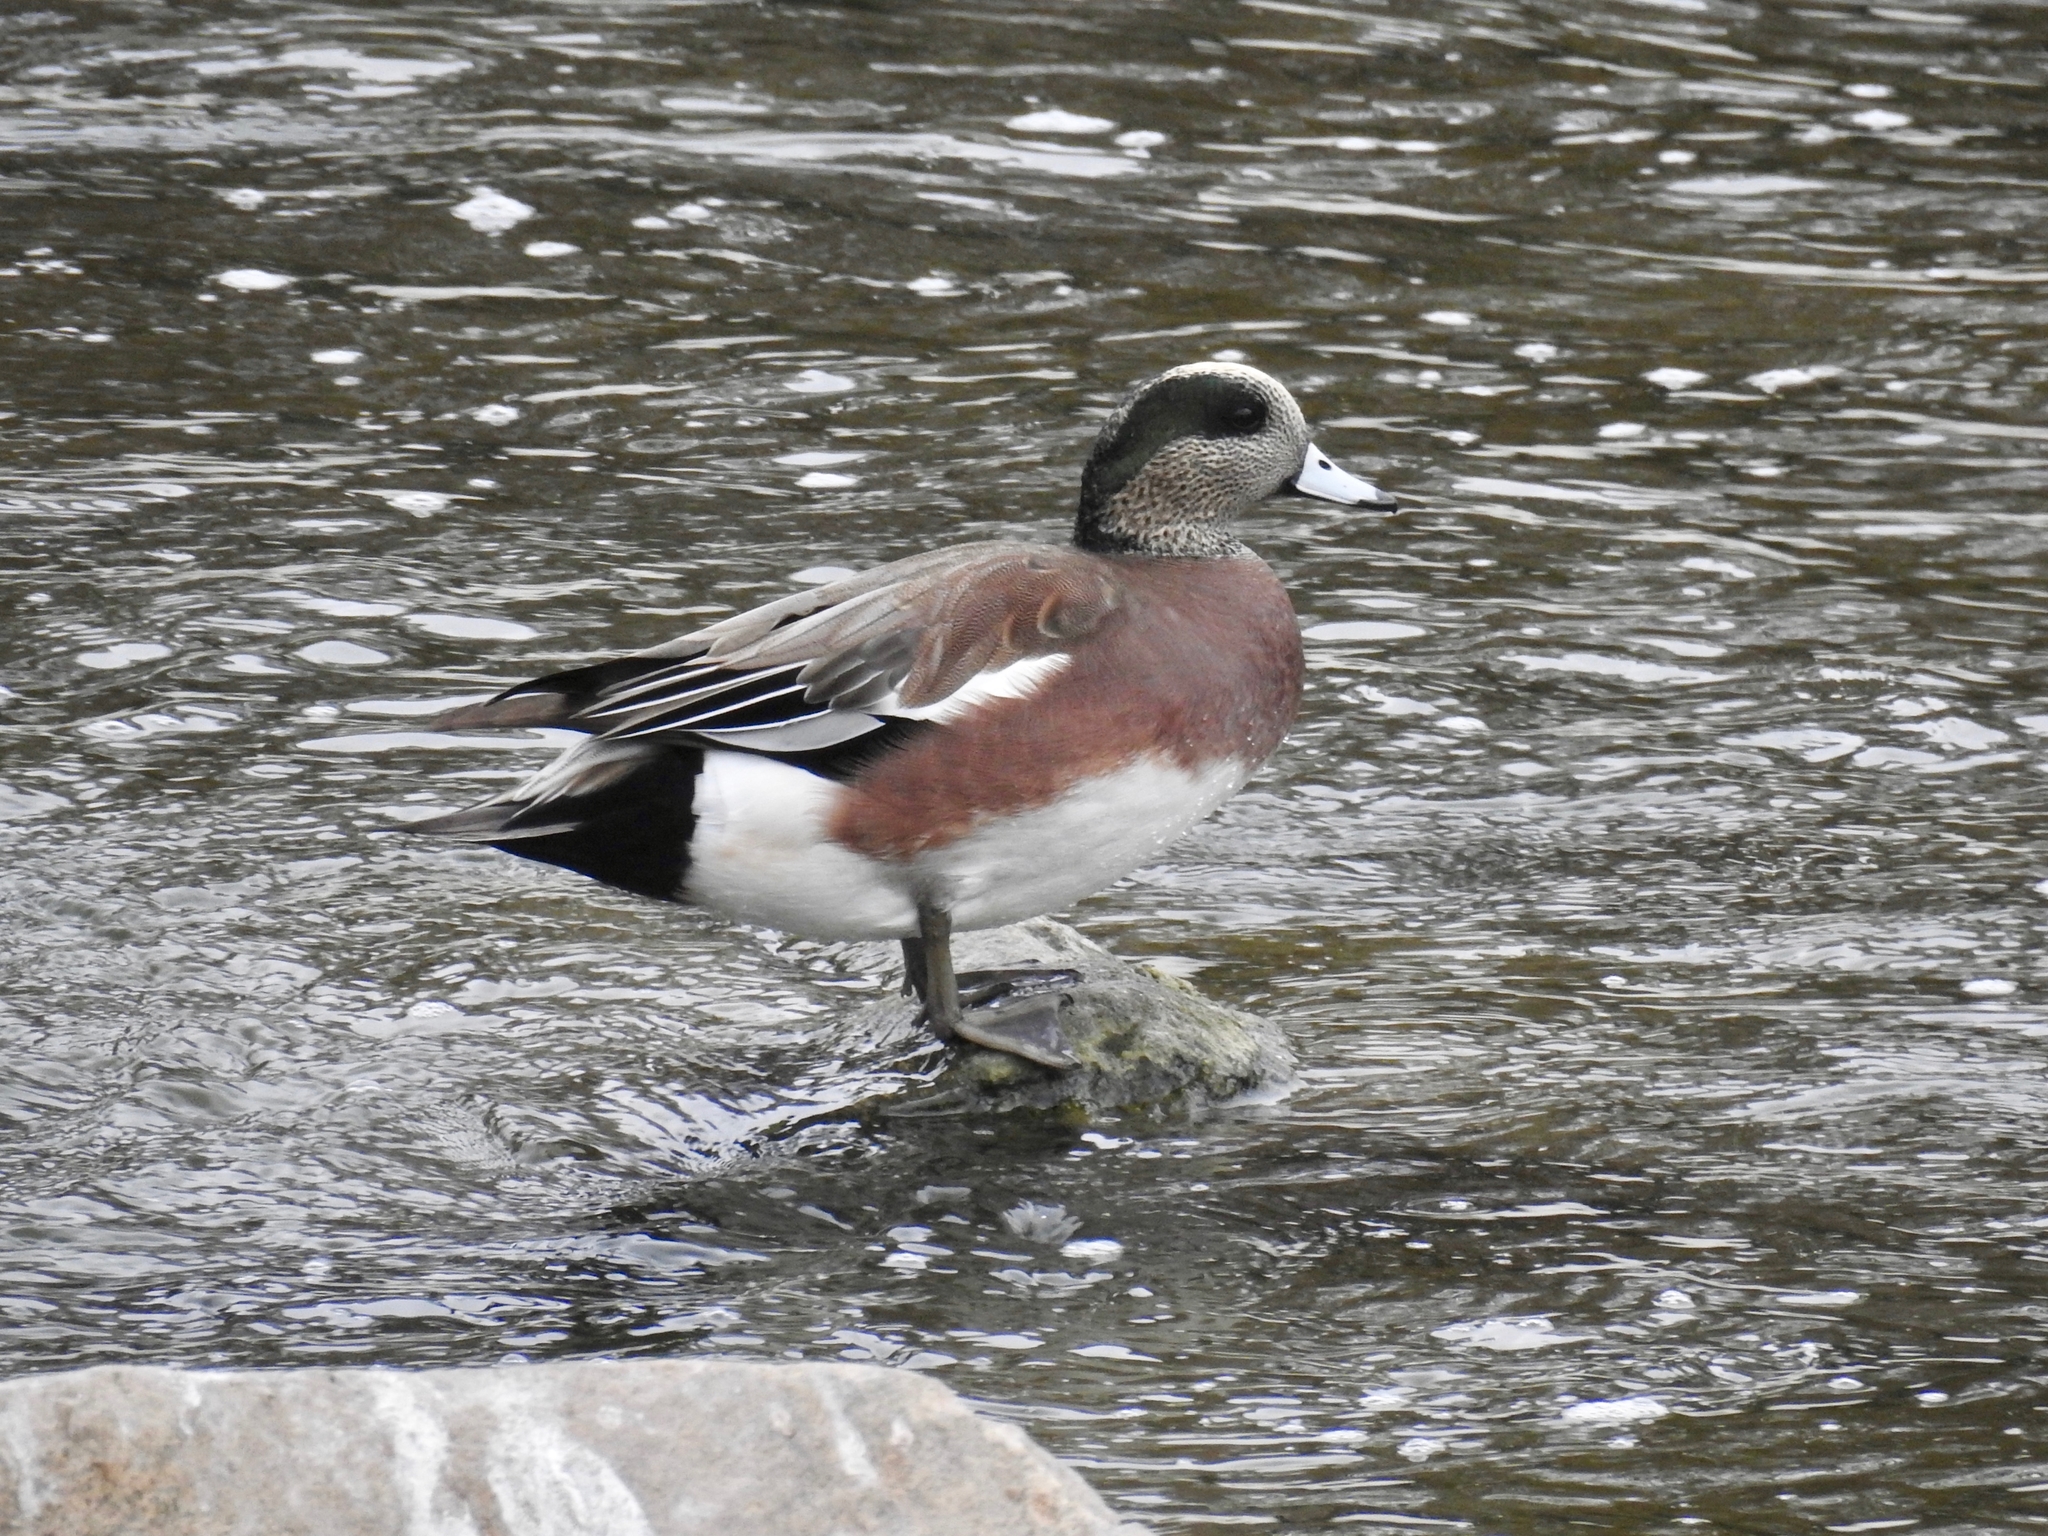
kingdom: Animalia
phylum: Chordata
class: Aves
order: Anseriformes
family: Anatidae
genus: Mareca
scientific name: Mareca americana
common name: American wigeon
